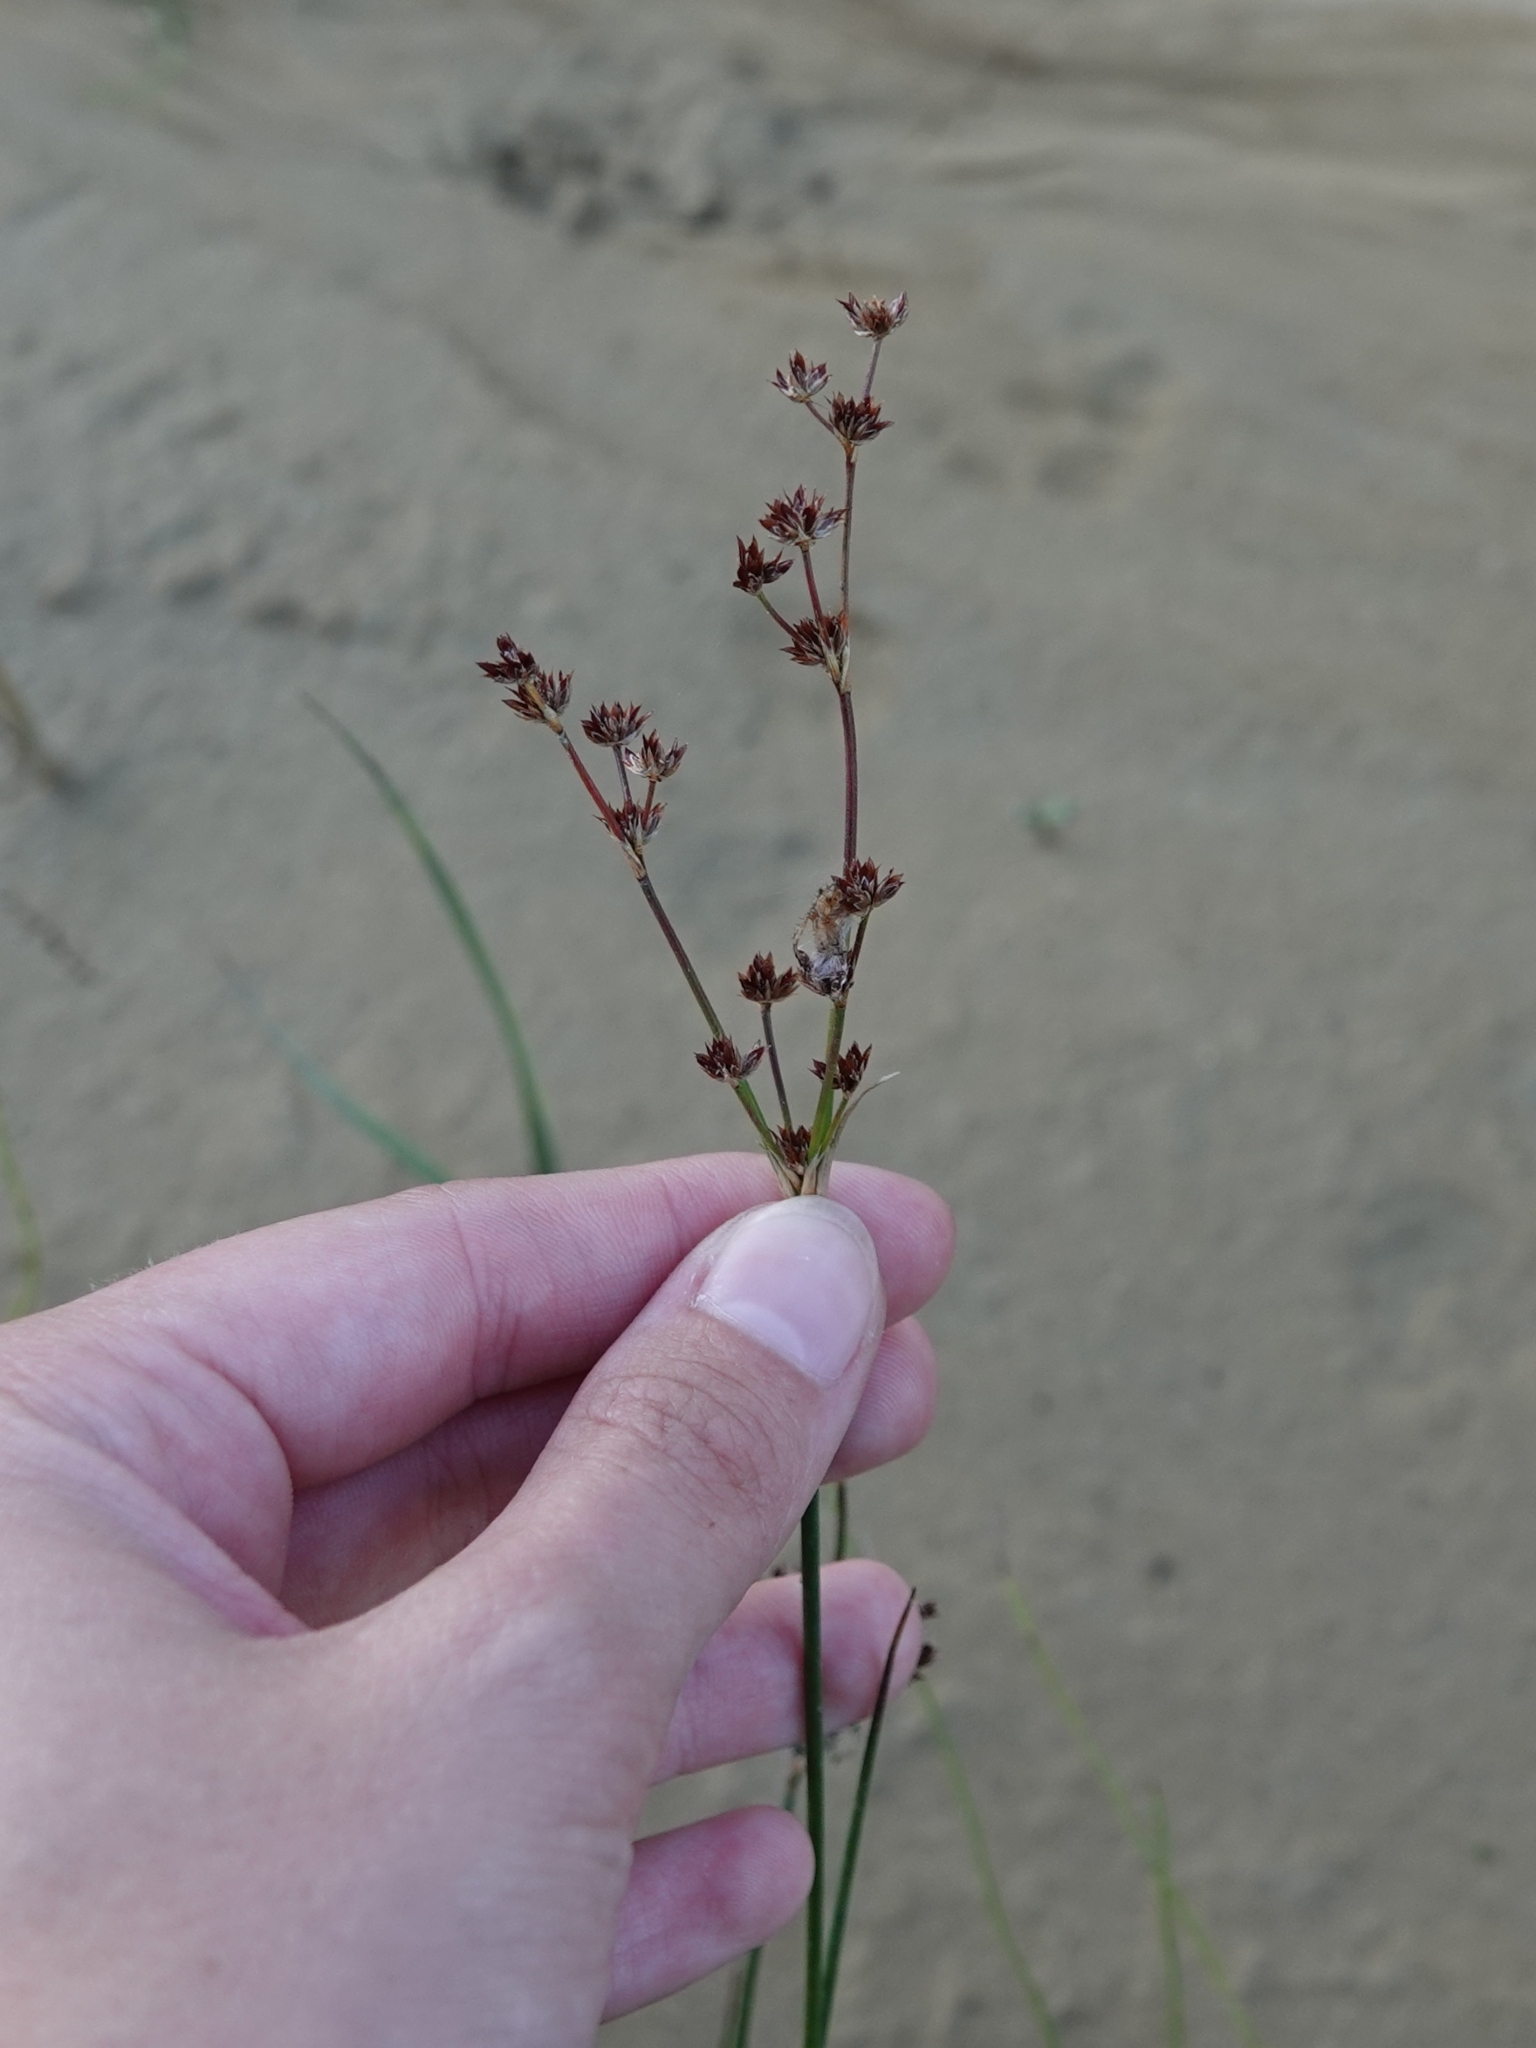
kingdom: Plantae
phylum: Tracheophyta
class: Liliopsida
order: Poales
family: Juncaceae
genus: Juncus
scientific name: Juncus articulatus
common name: Jointed rush
